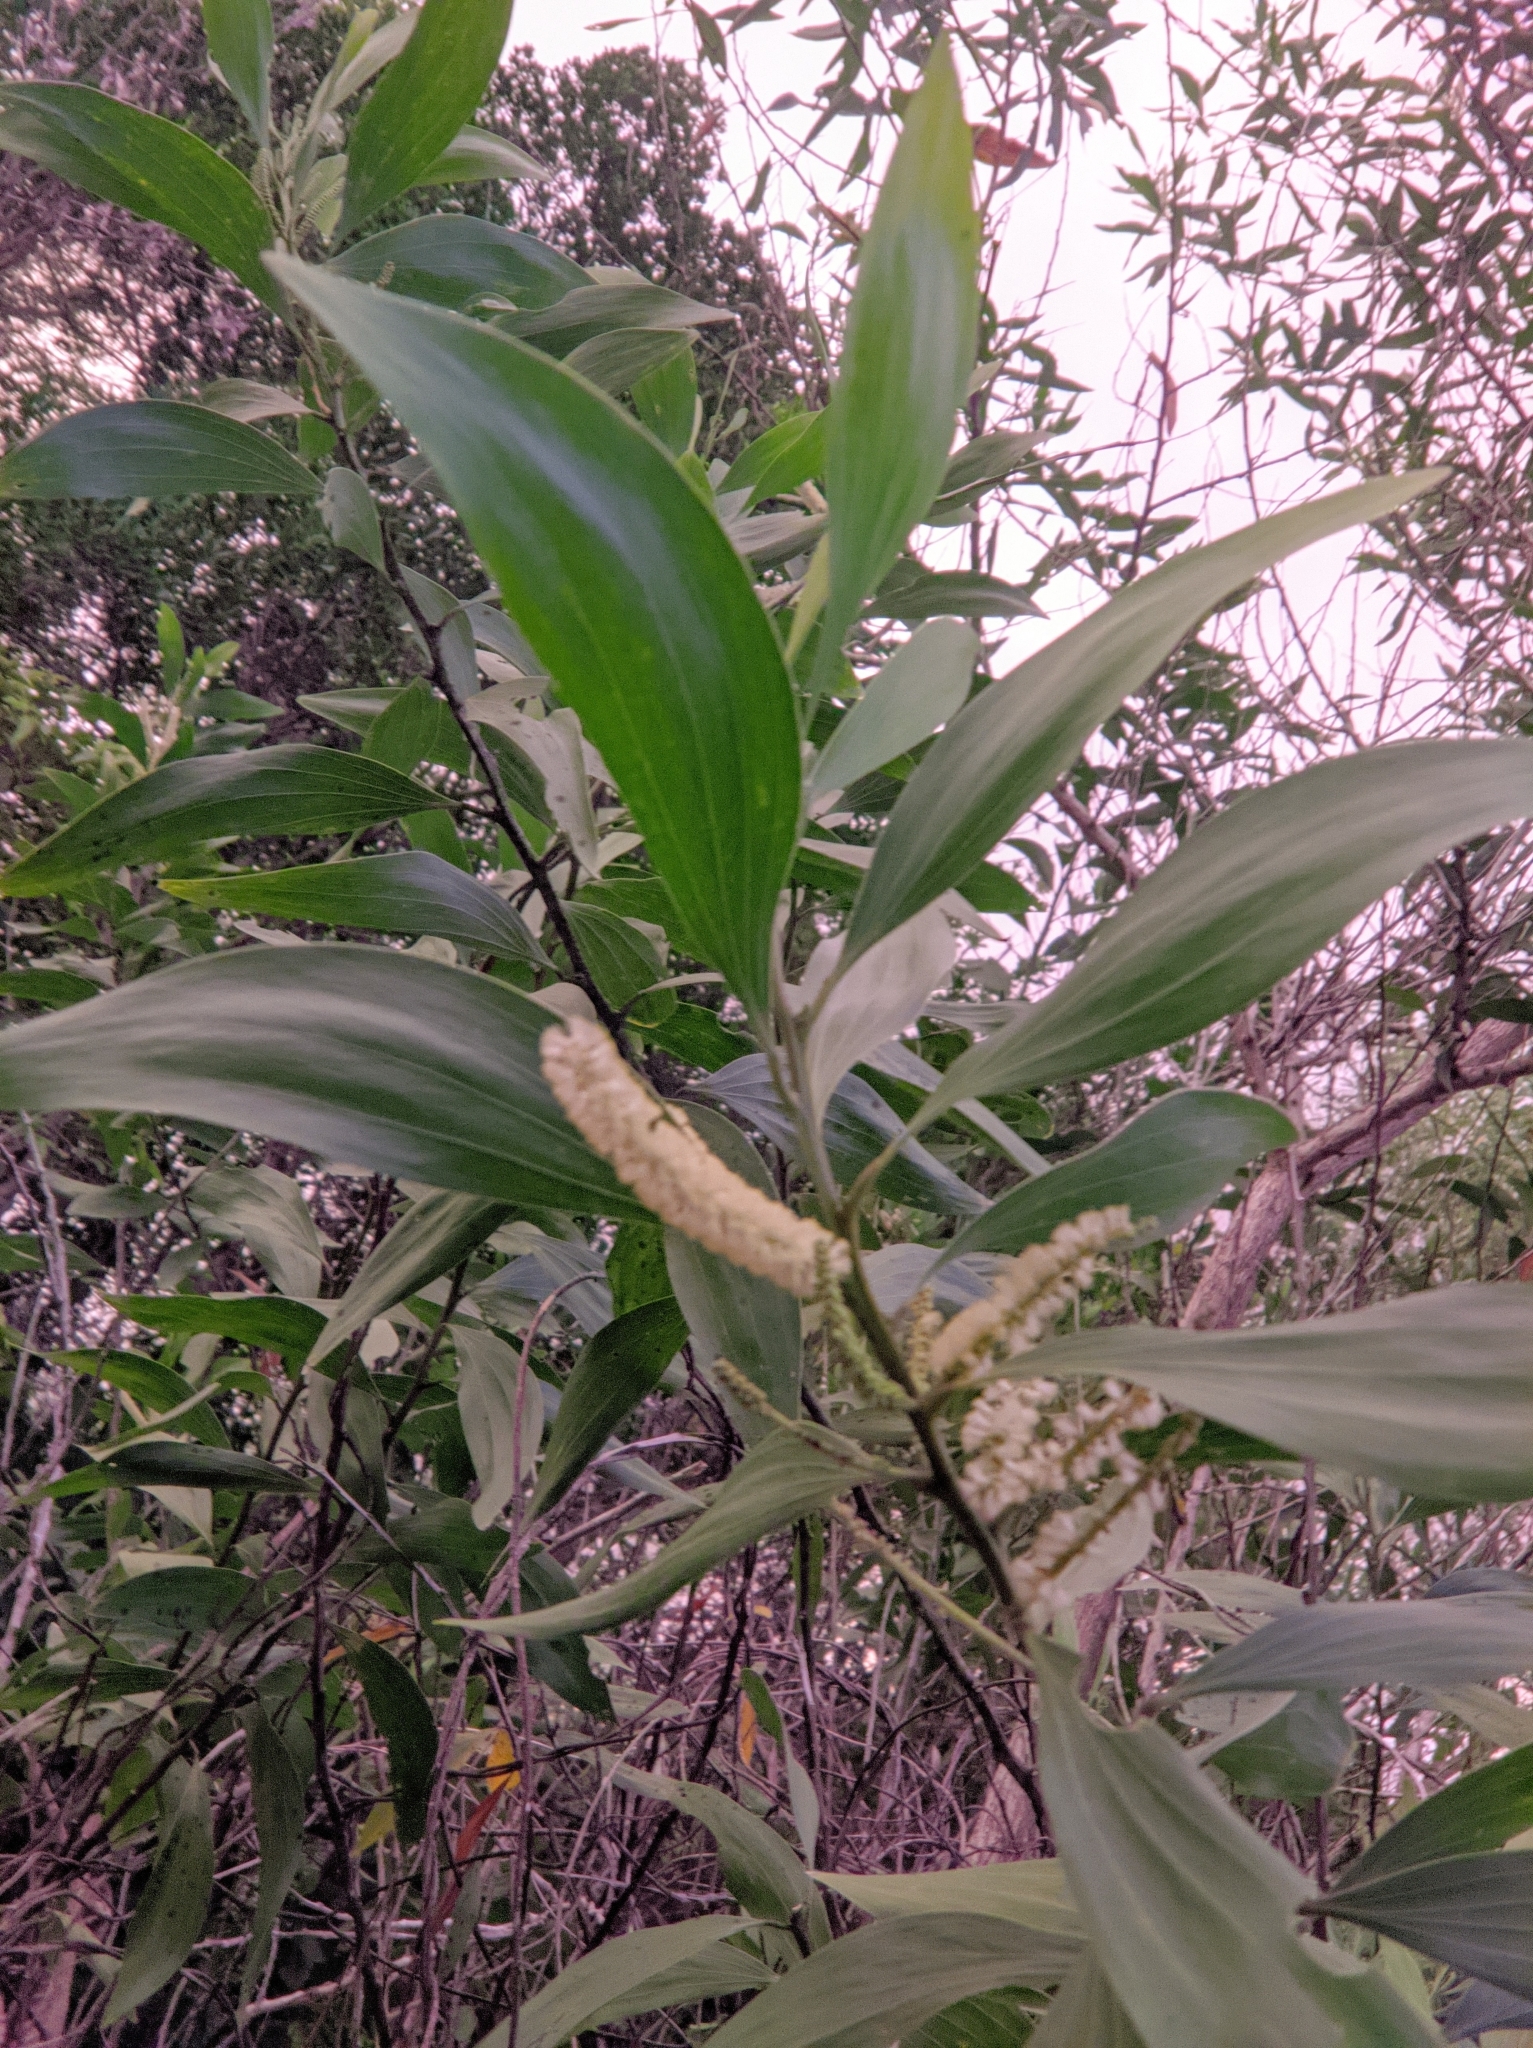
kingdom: Plantae
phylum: Tracheophyta
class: Magnoliopsida
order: Fabales
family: Fabaceae
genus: Acacia
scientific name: Acacia mangium
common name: Black wattle
